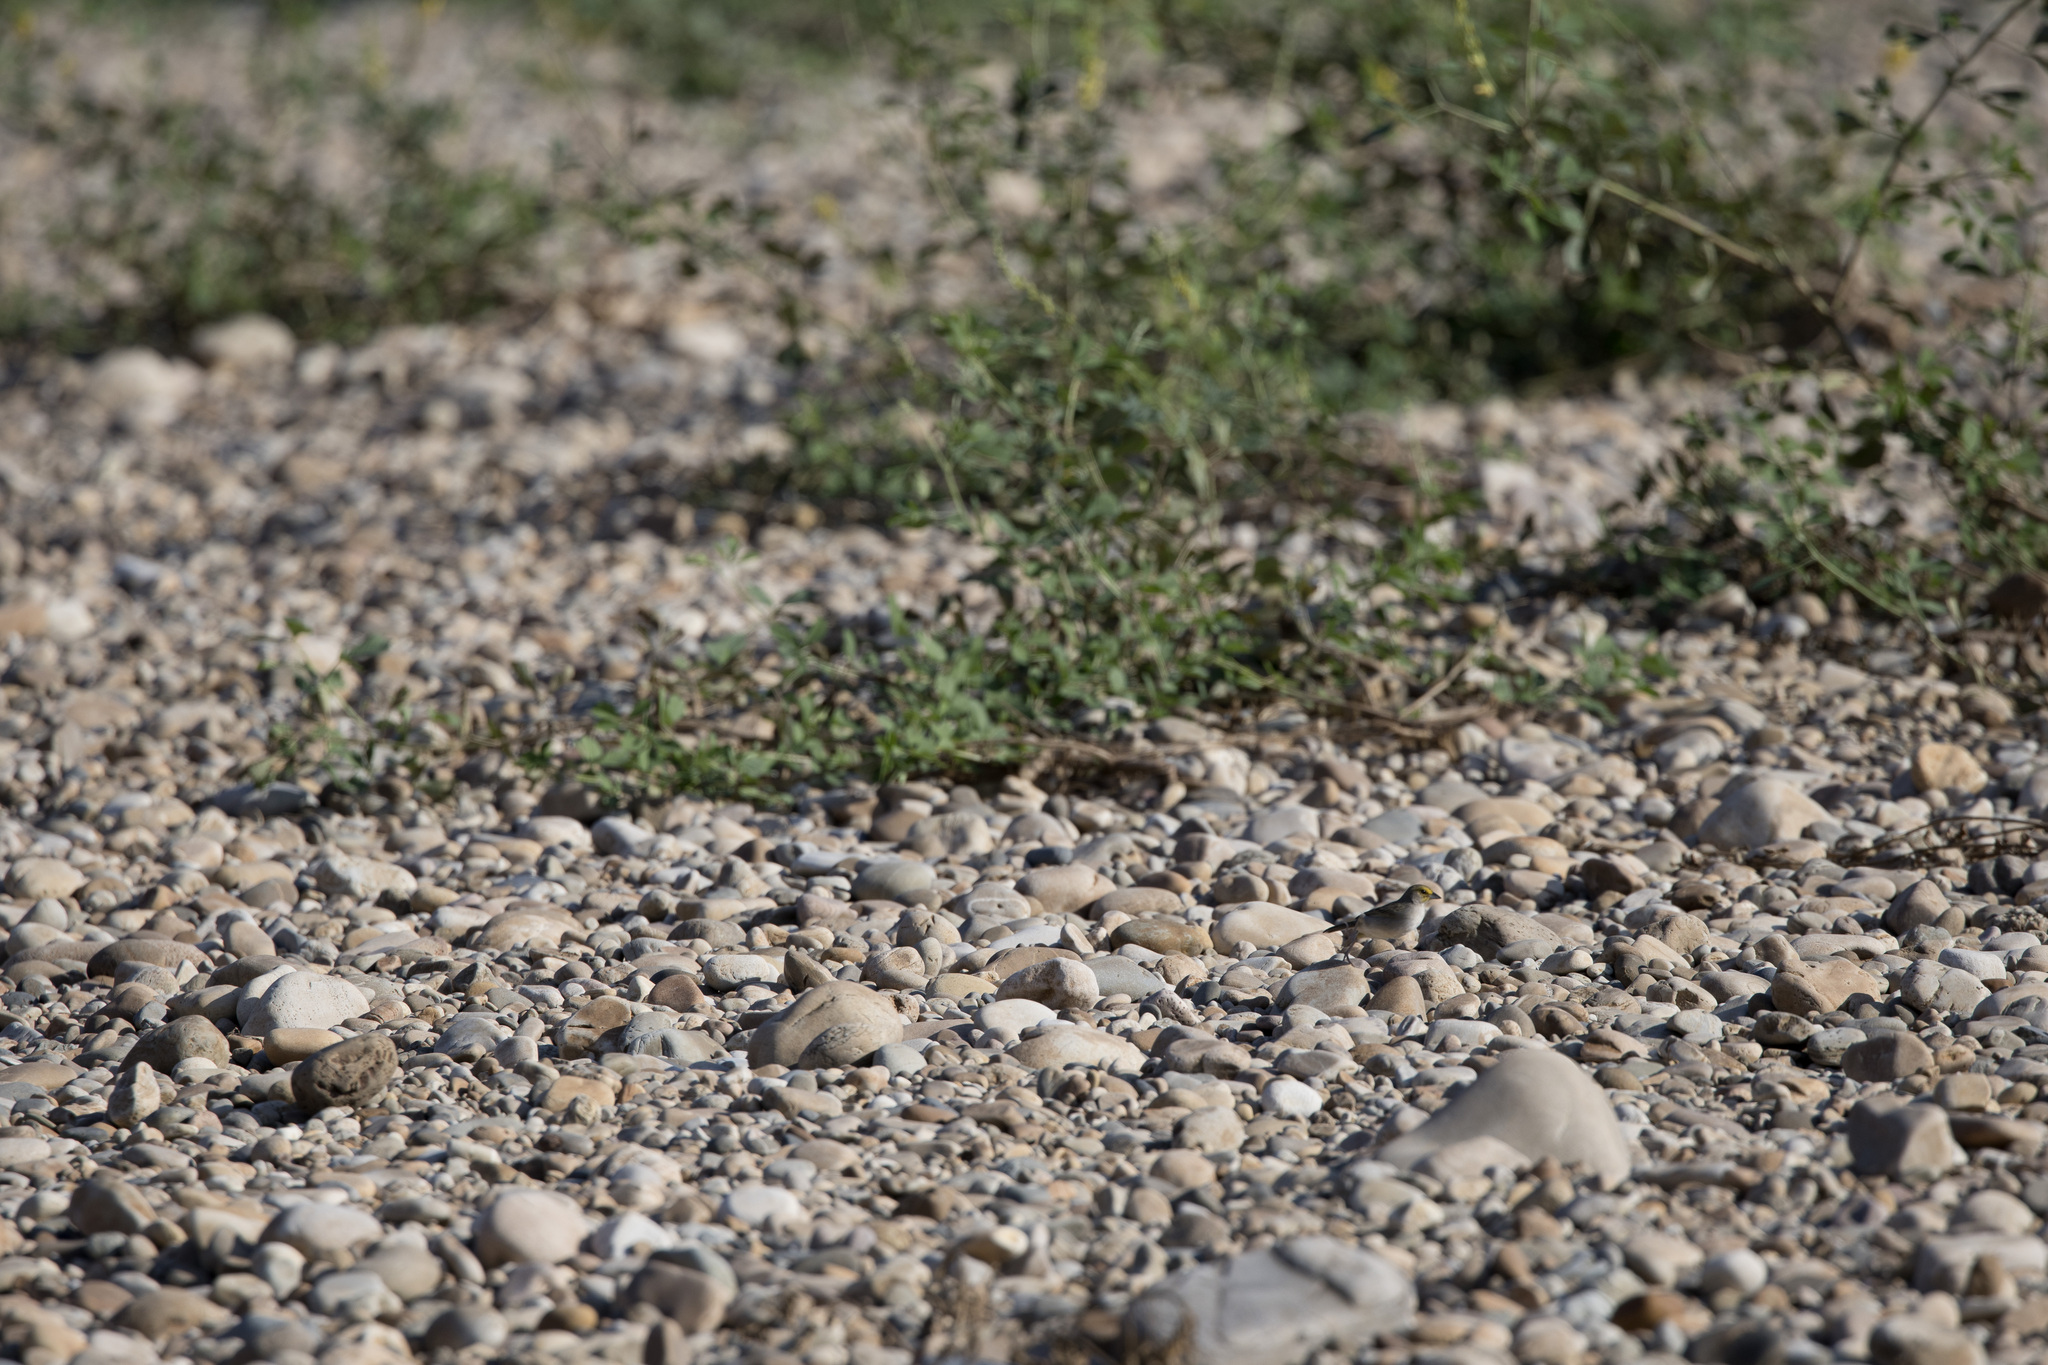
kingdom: Animalia
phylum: Chordata
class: Aves
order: Passeriformes
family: Passerellidae
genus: Ammodramus
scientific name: Ammodramus aurifrons
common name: Yellow-browed sparrow
